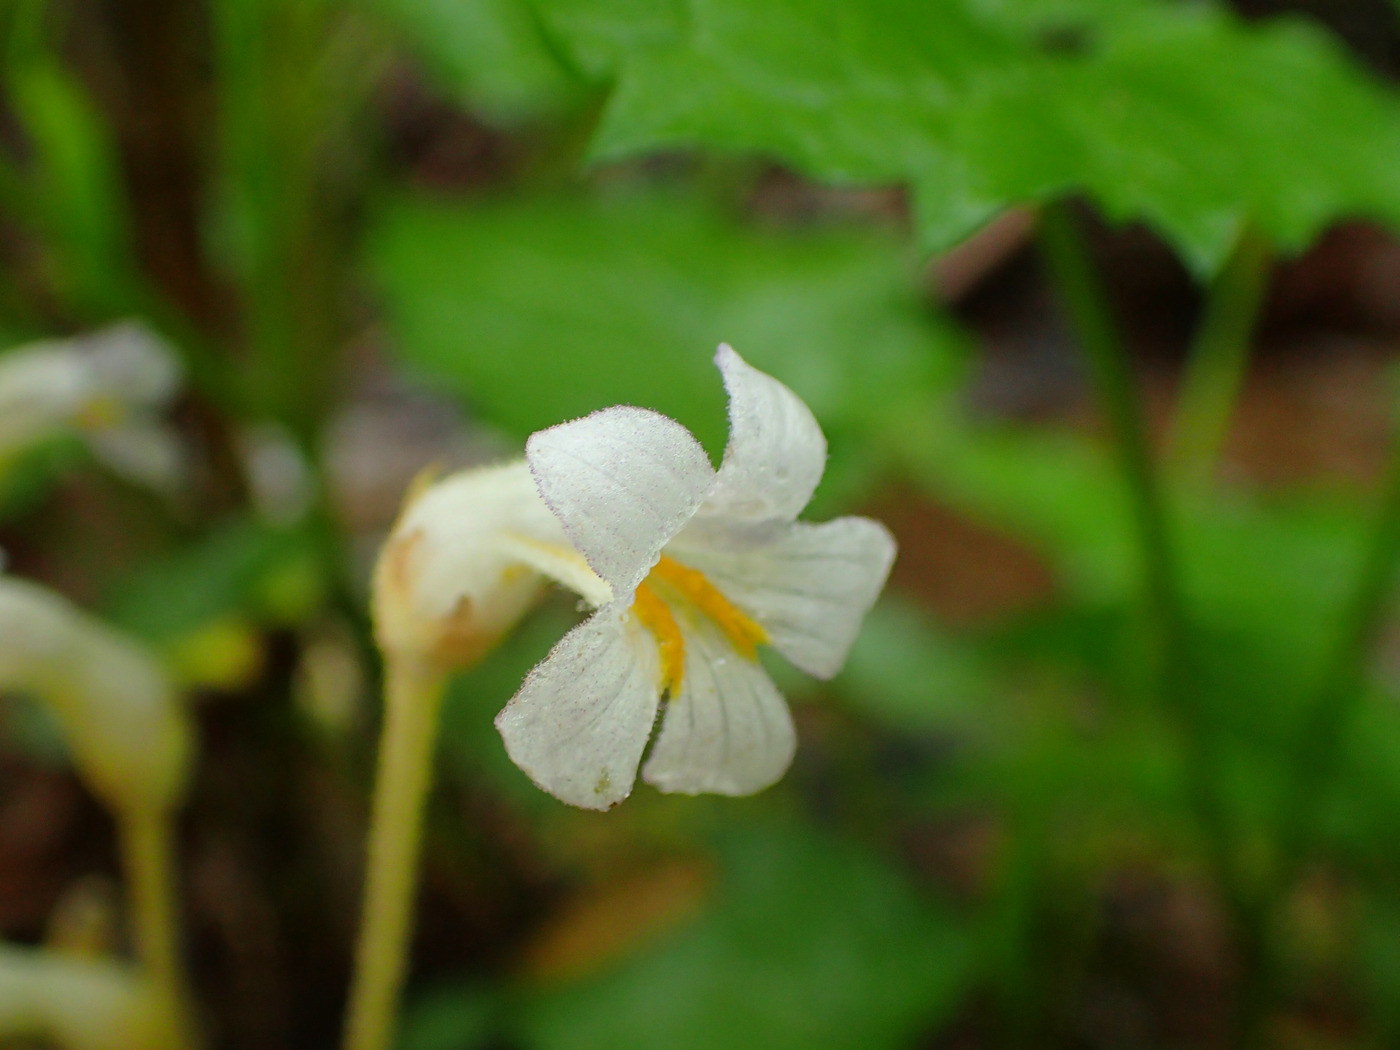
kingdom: Plantae
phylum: Tracheophyta
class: Magnoliopsida
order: Lamiales
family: Orobanchaceae
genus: Aphyllon
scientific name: Aphyllon uniflorum
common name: One-flowered broomrape
